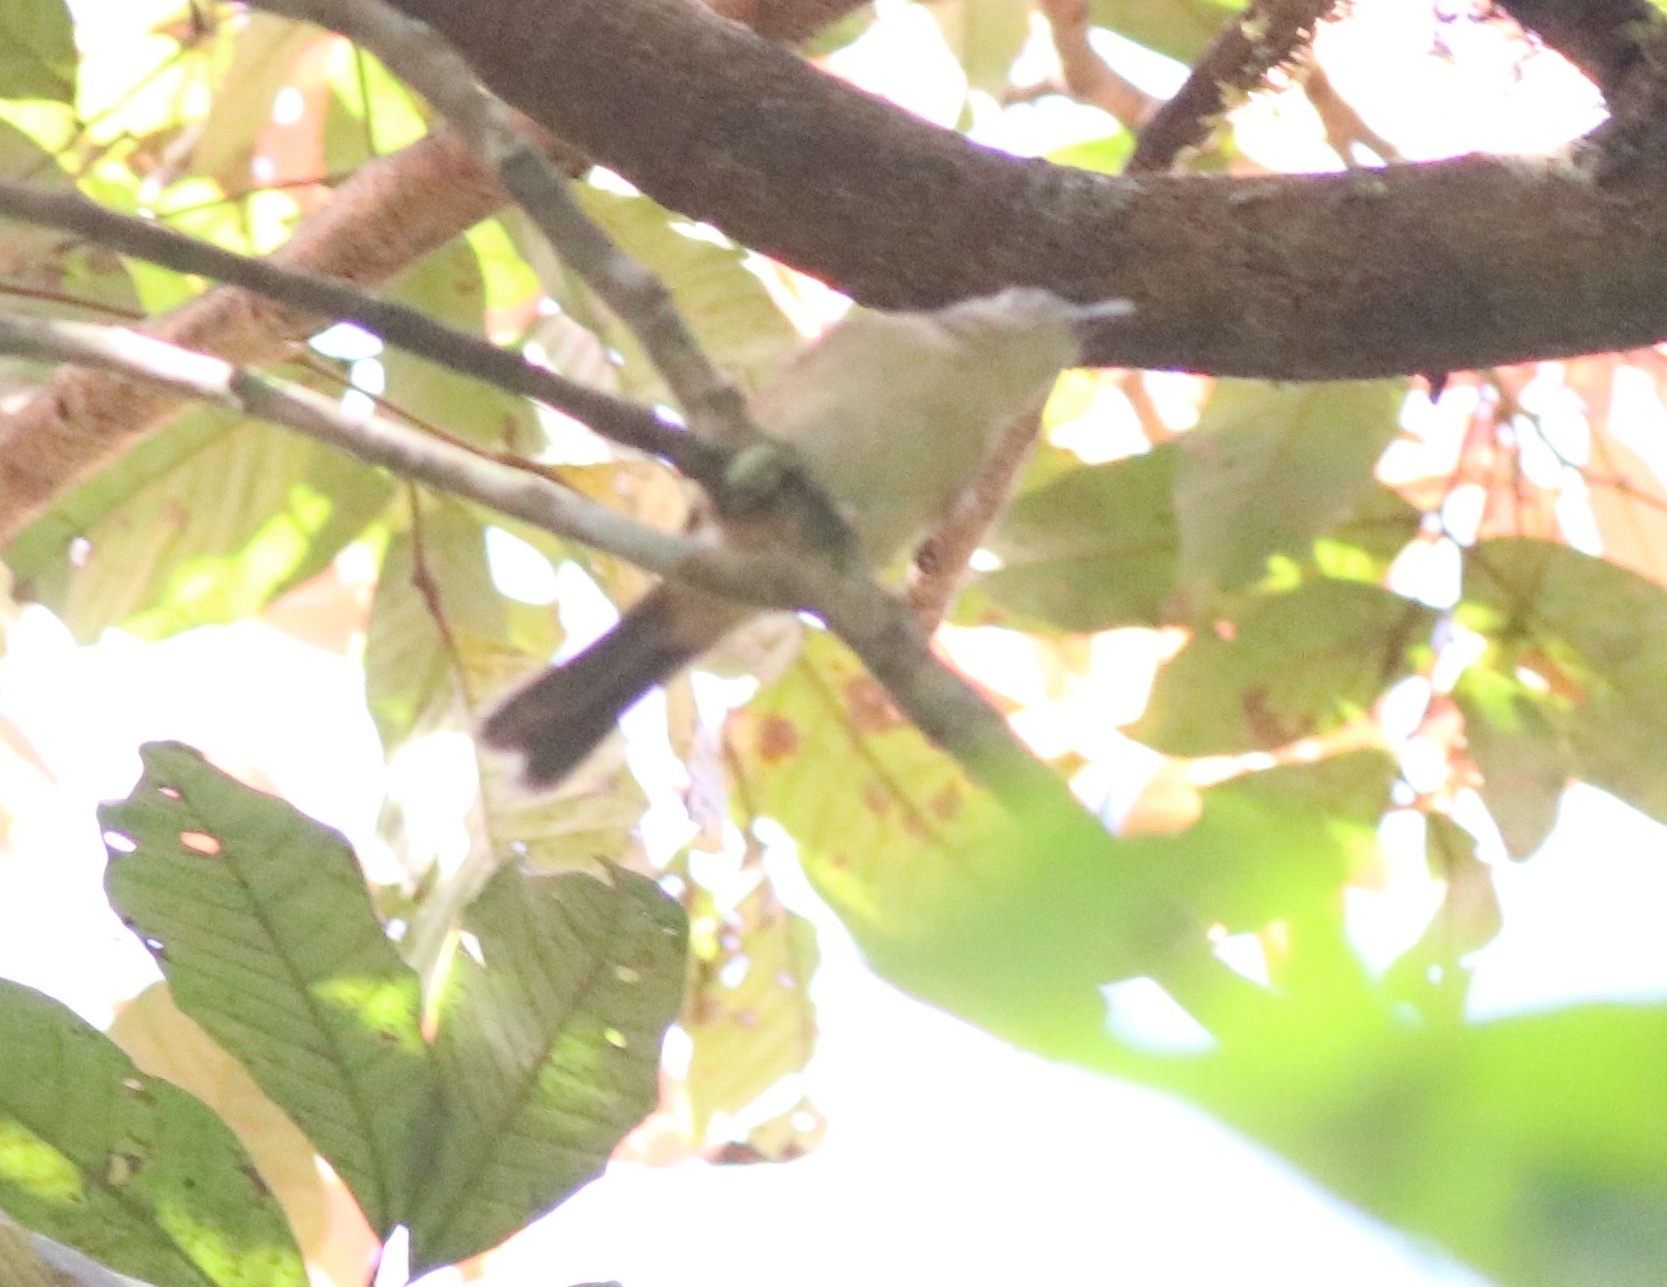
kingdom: Animalia
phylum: Chordata
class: Aves
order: Passeriformes
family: Pellorneidae
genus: Alcippe
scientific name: Alcippe poioicephala
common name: Brown-cheeked fulvetta
